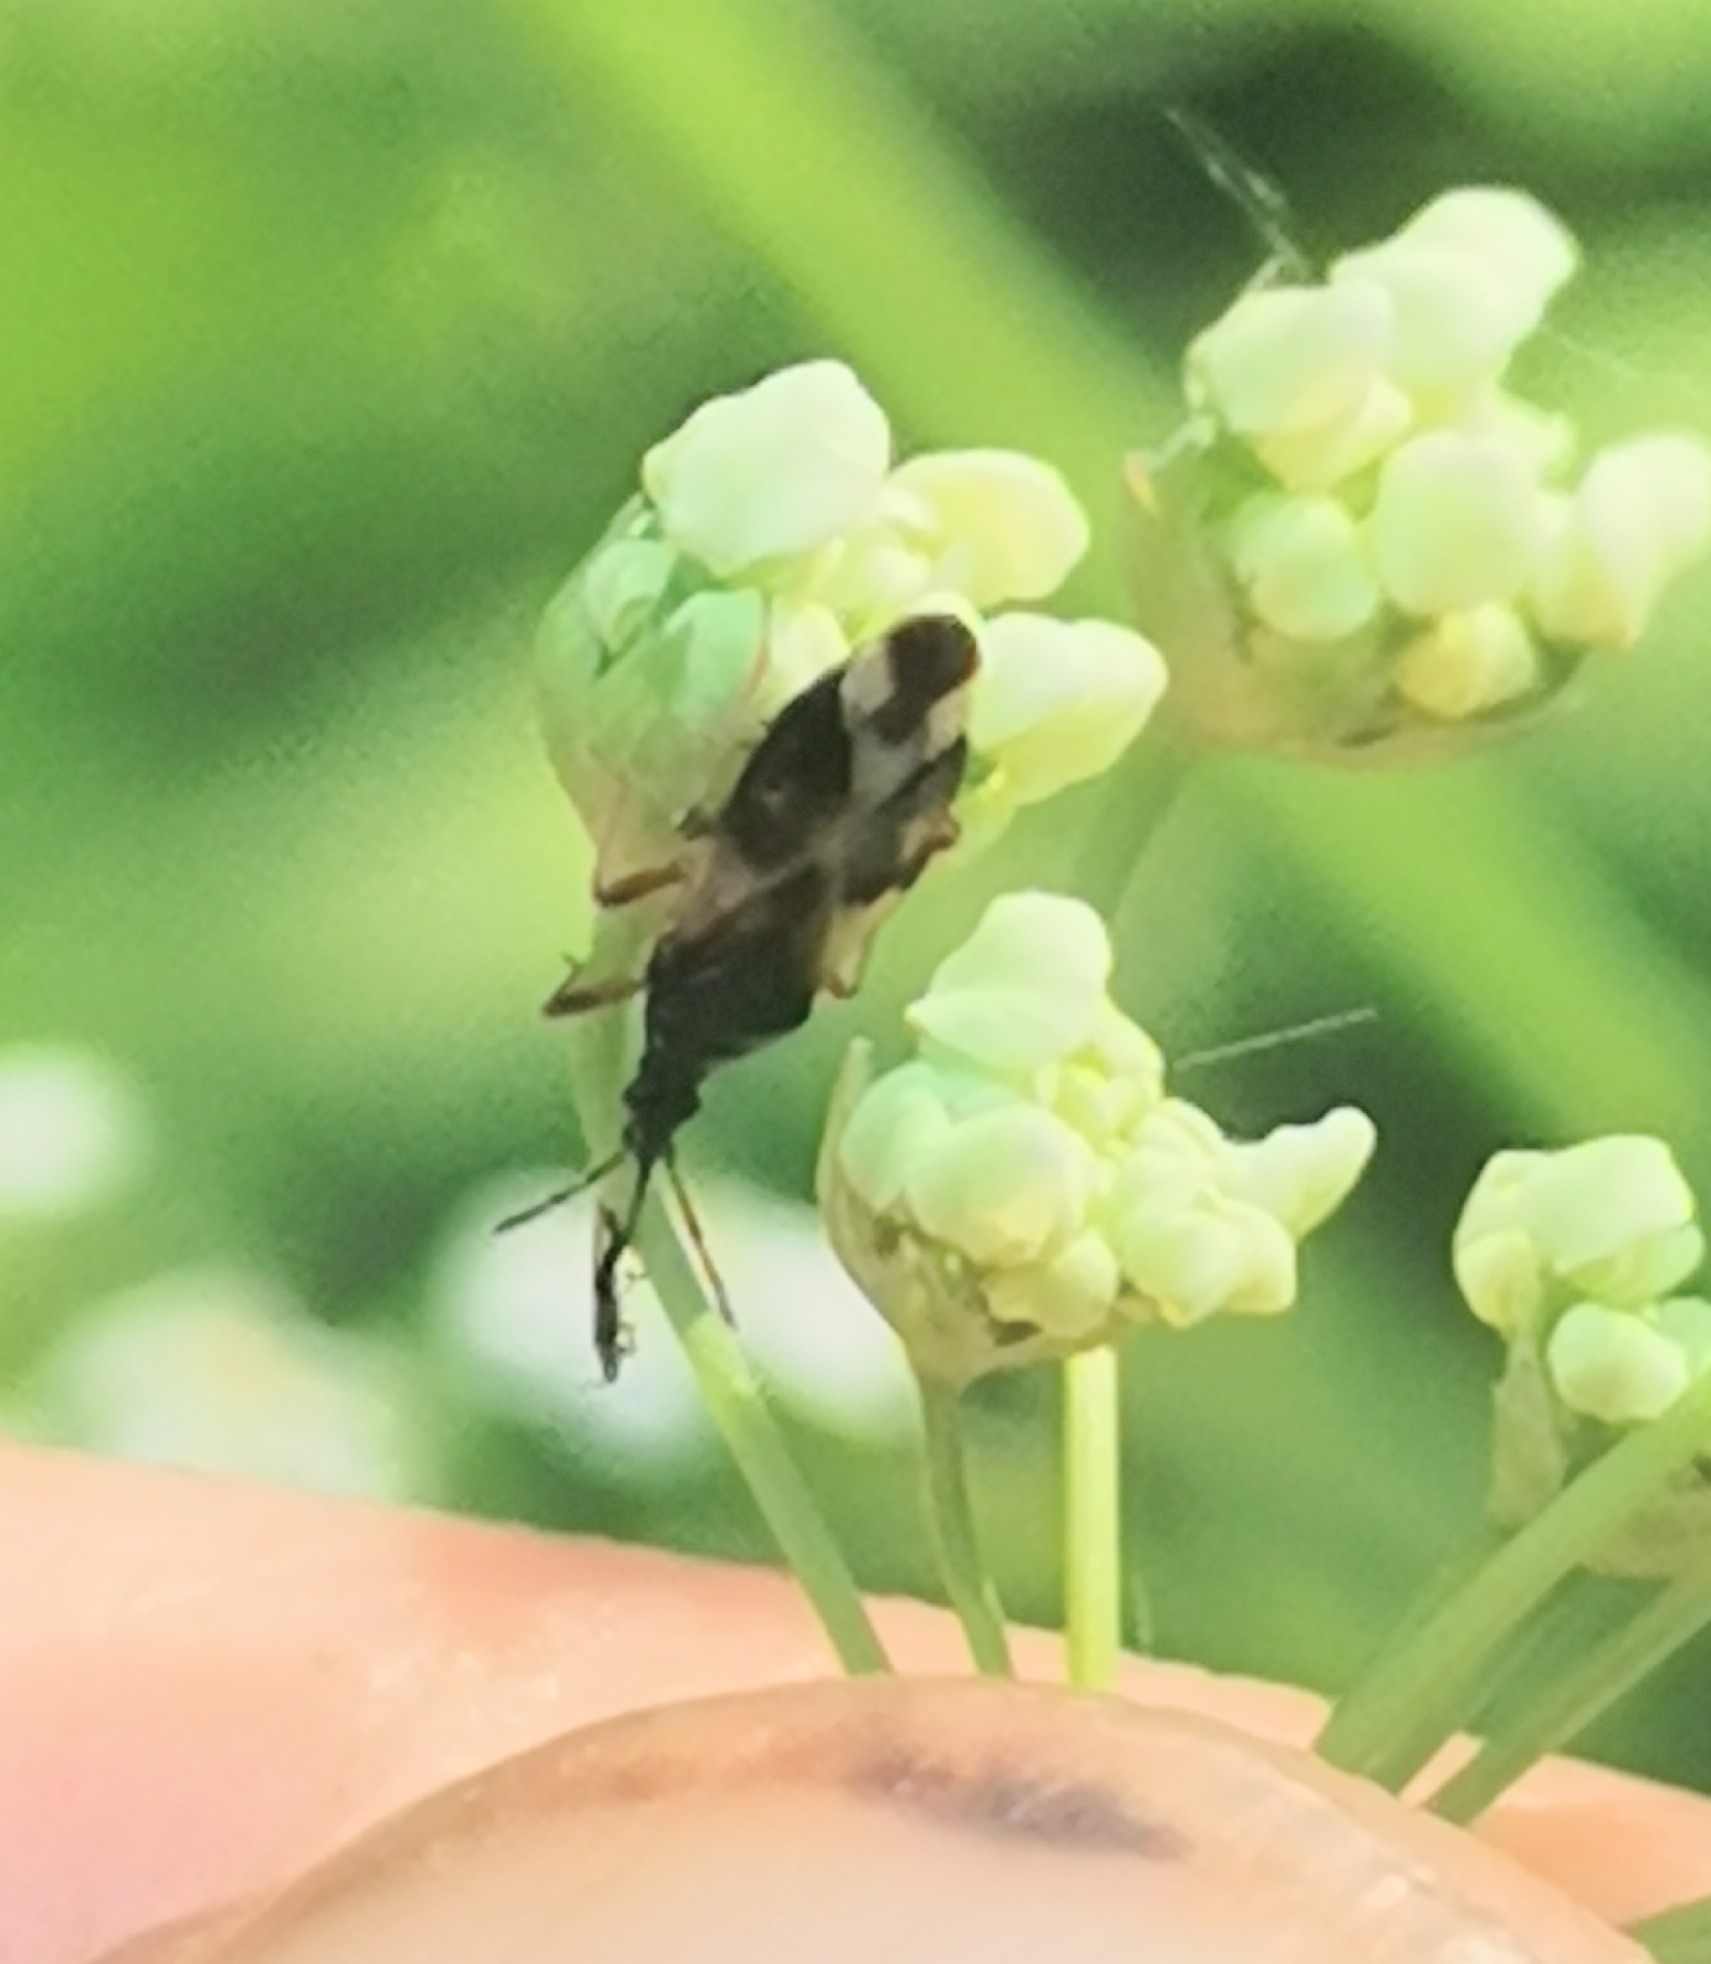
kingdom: Animalia
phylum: Arthropoda
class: Insecta
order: Hemiptera
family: Anthocoridae
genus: Anthocoris
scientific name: Anthocoris nemorum
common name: Minute pirate bug
